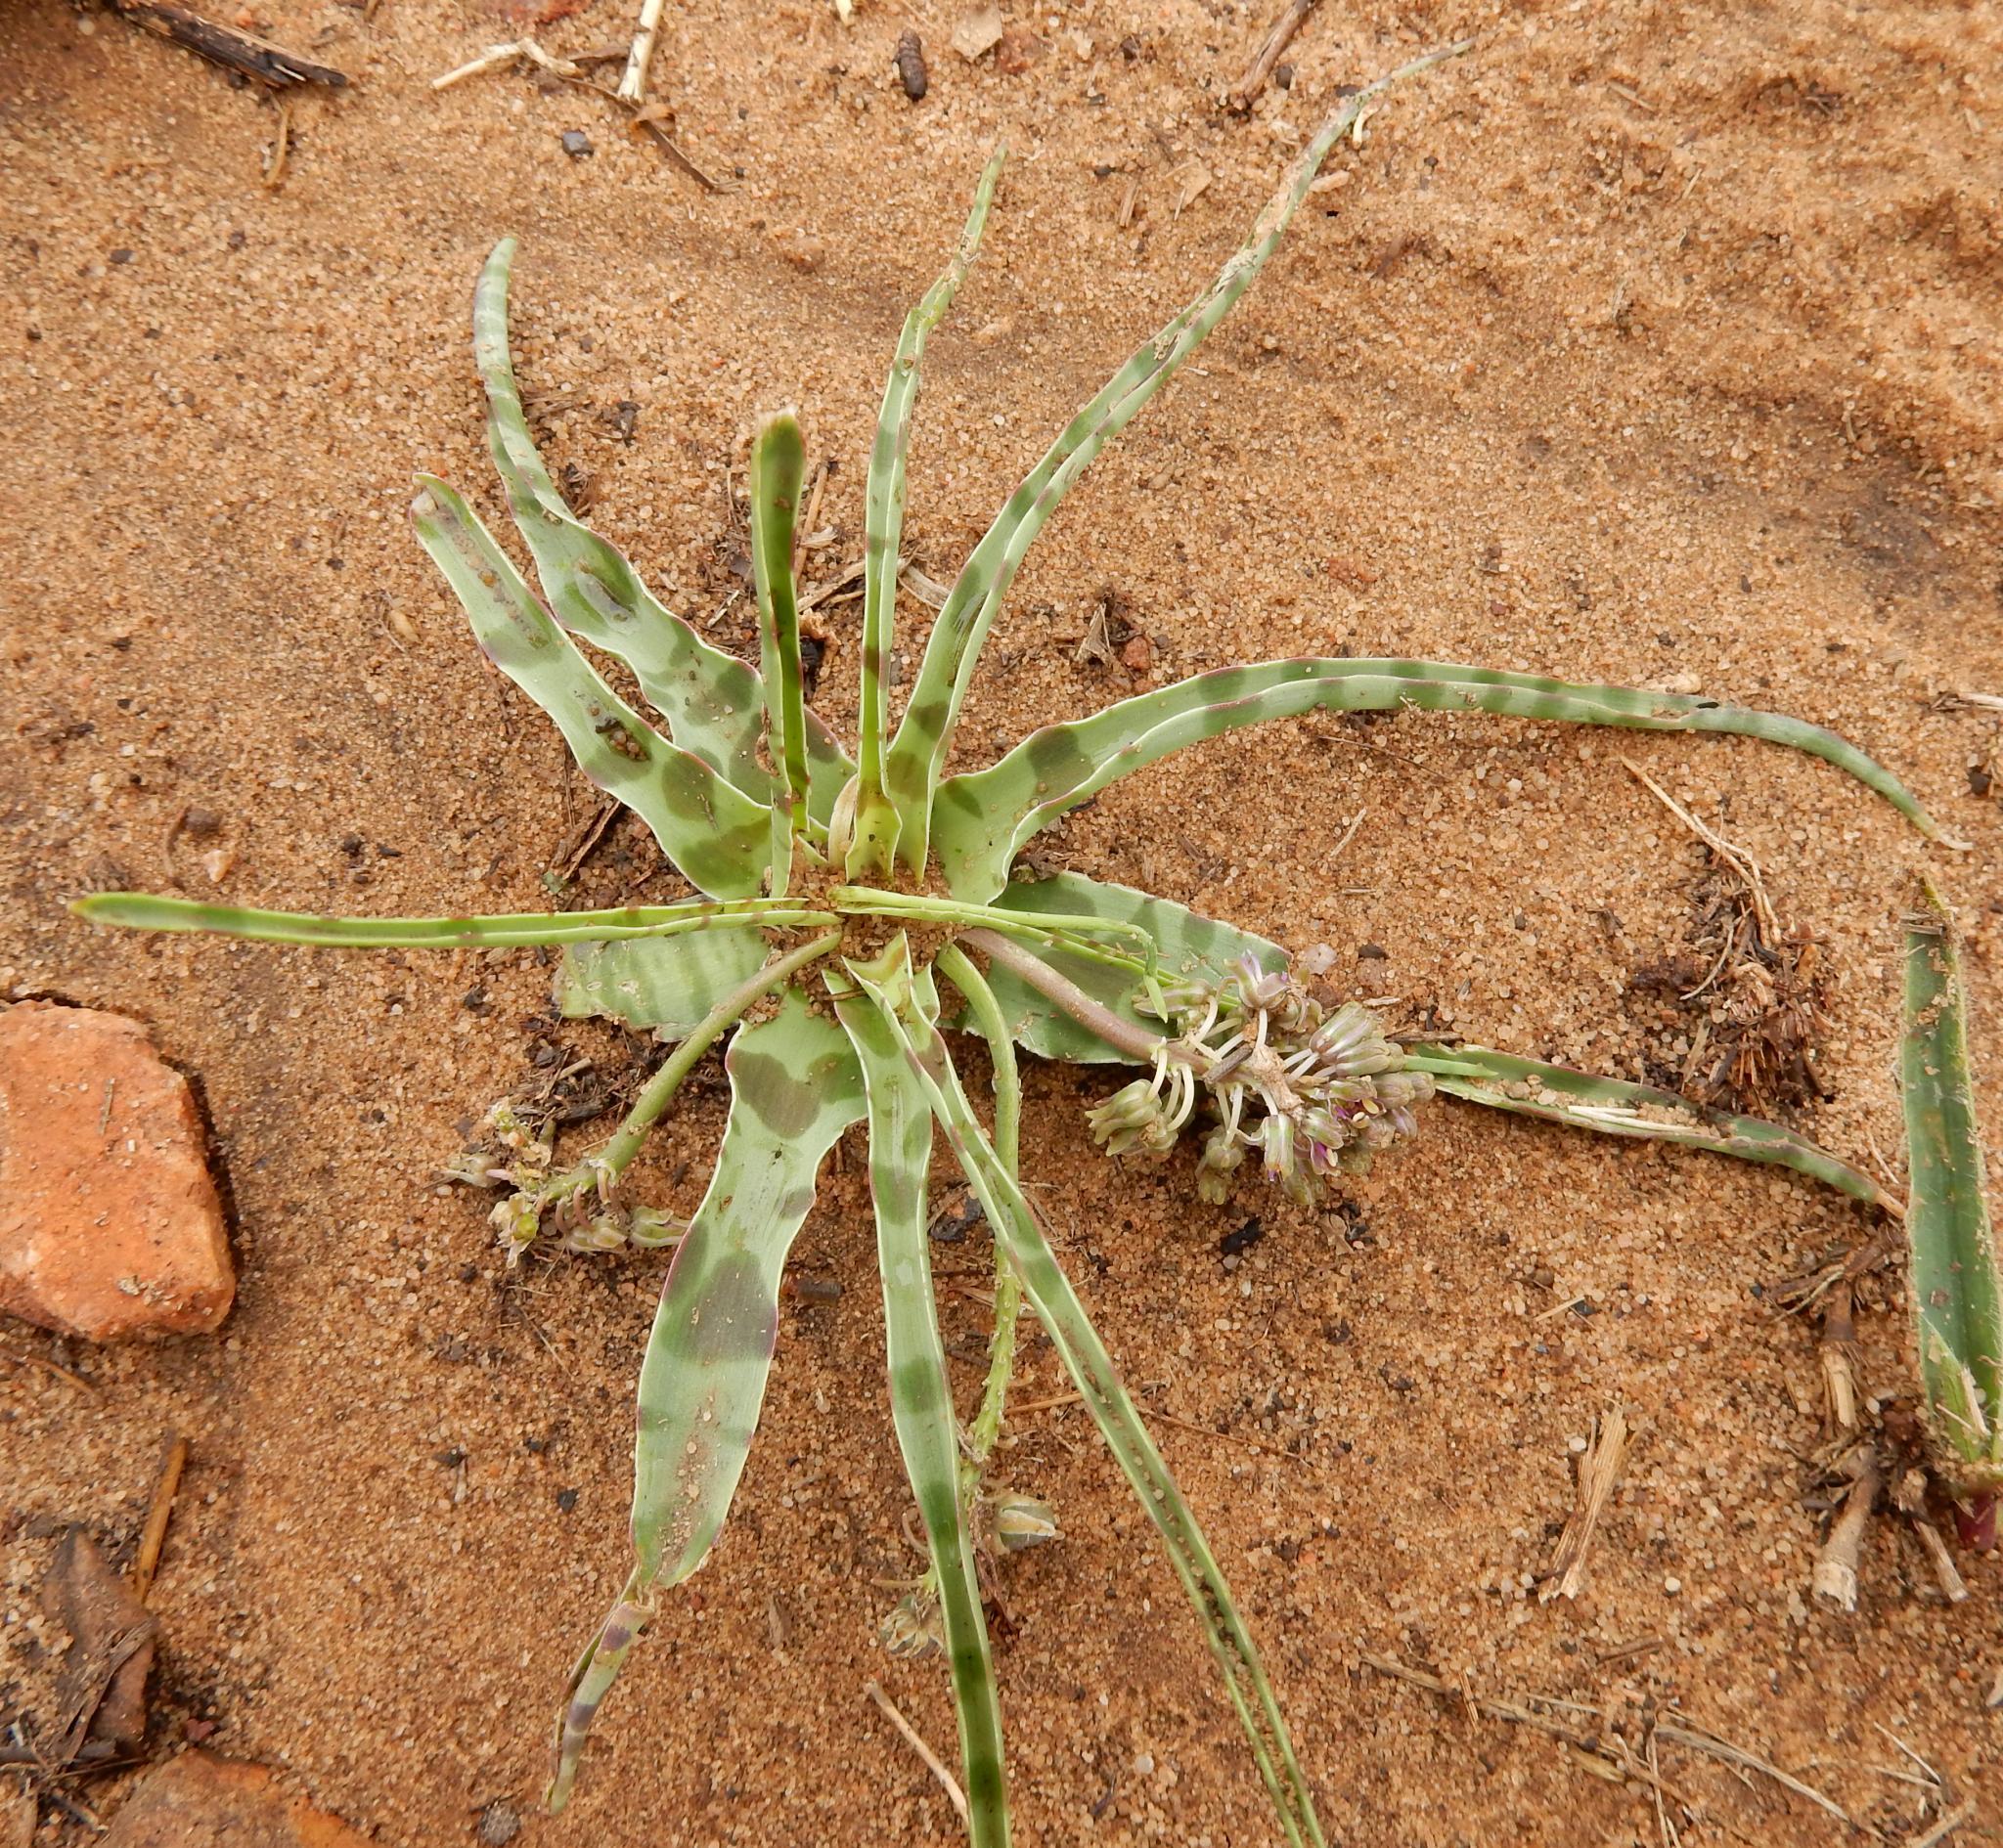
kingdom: Plantae
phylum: Tracheophyta
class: Liliopsida
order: Asparagales
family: Asparagaceae
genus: Ledebouria
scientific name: Ledebouria luteola
